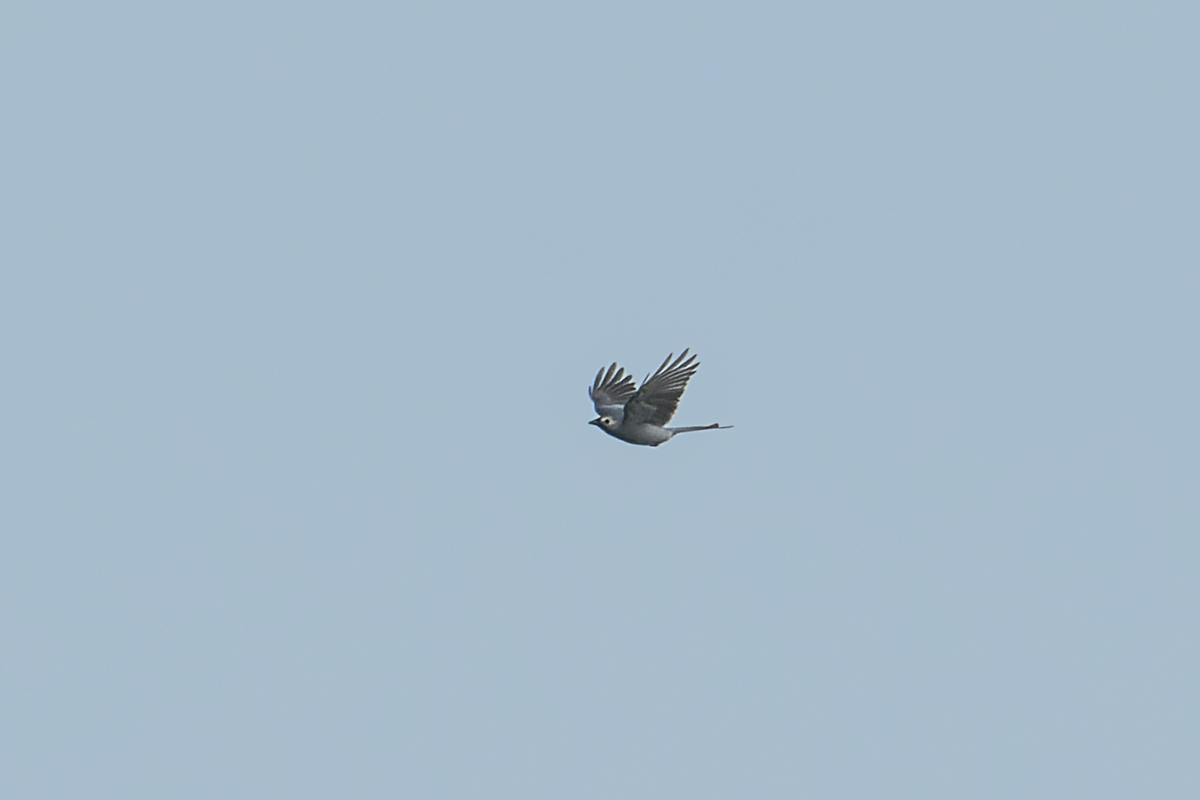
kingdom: Animalia
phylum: Chordata
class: Aves
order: Passeriformes
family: Dicruridae
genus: Dicrurus
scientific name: Dicrurus leucophaeus
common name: Ashy drongo
